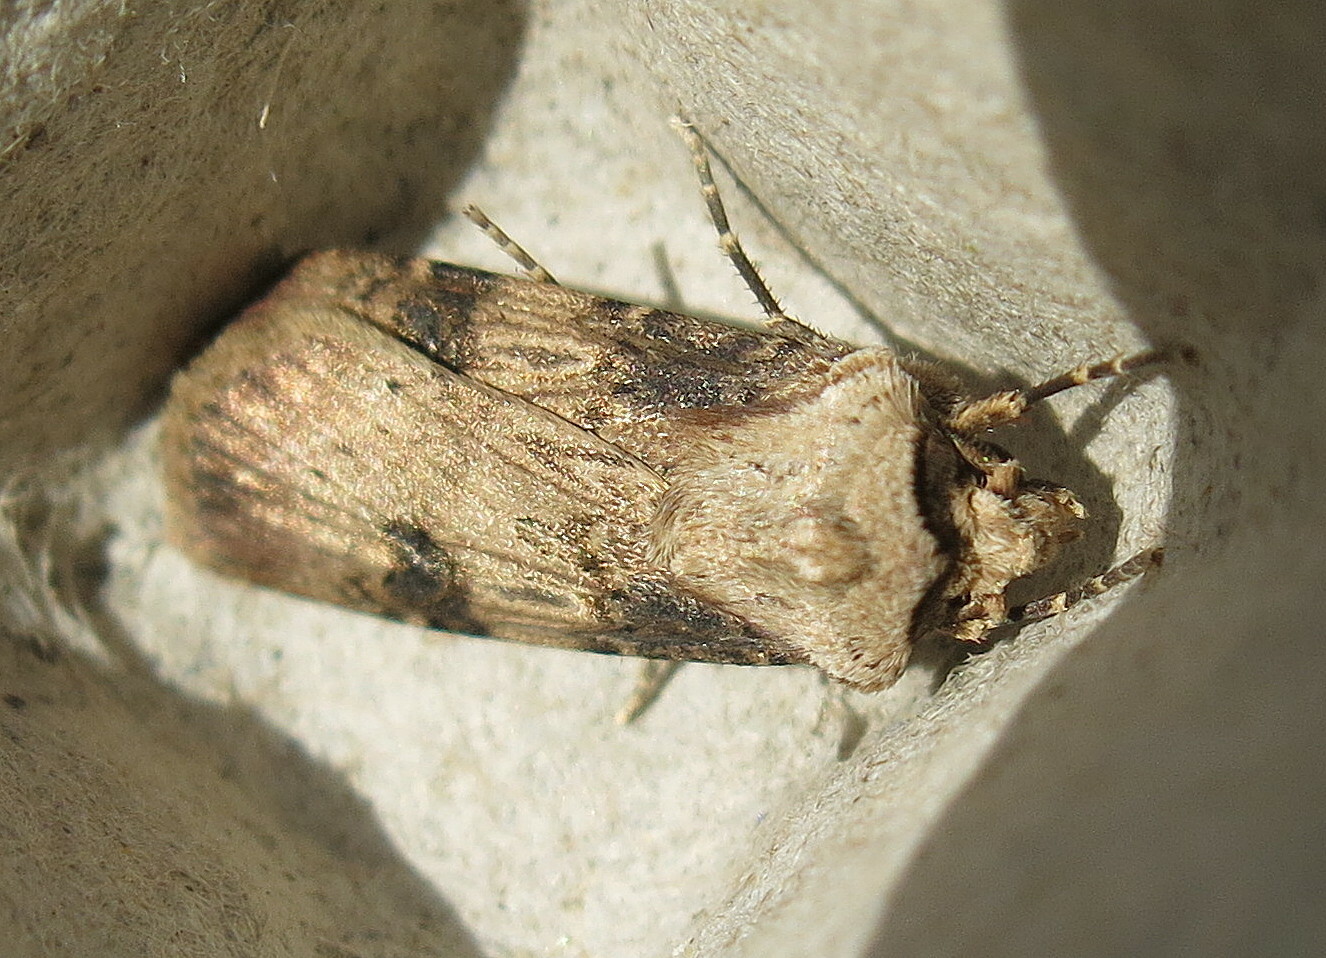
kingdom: Animalia
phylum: Arthropoda
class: Insecta
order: Lepidoptera
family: Noctuidae
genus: Agrotis
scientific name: Agrotis puta
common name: Shuttle-shaped dart
